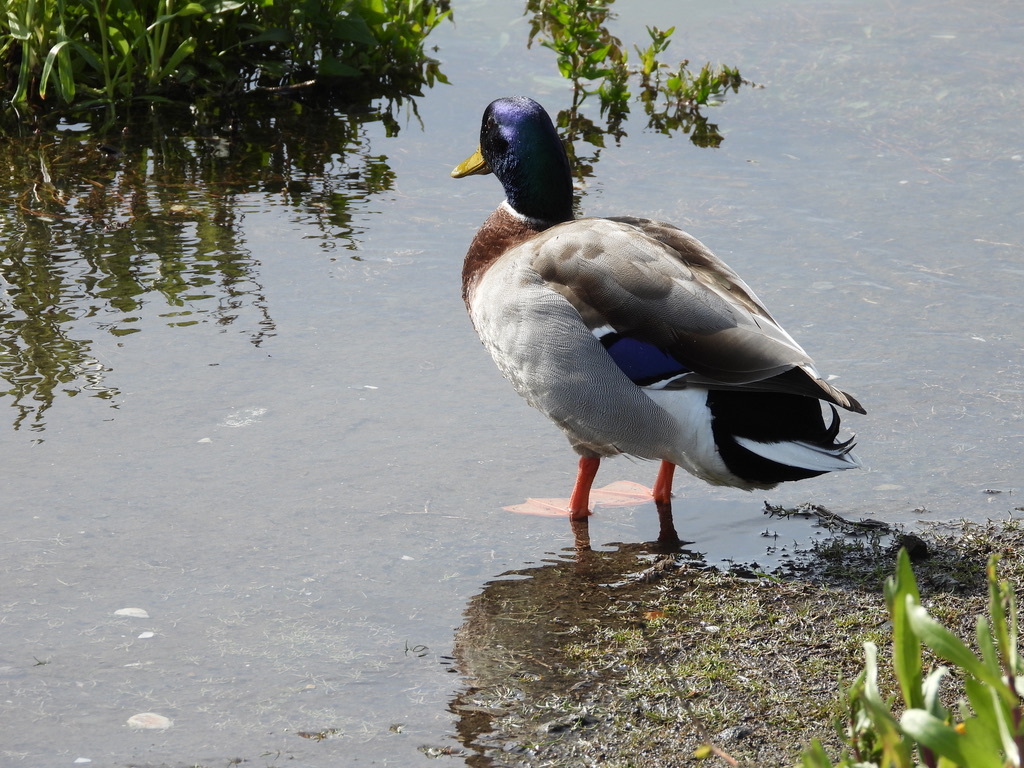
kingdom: Animalia
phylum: Chordata
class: Aves
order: Anseriformes
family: Anatidae
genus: Anas
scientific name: Anas platyrhynchos
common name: Mallard
